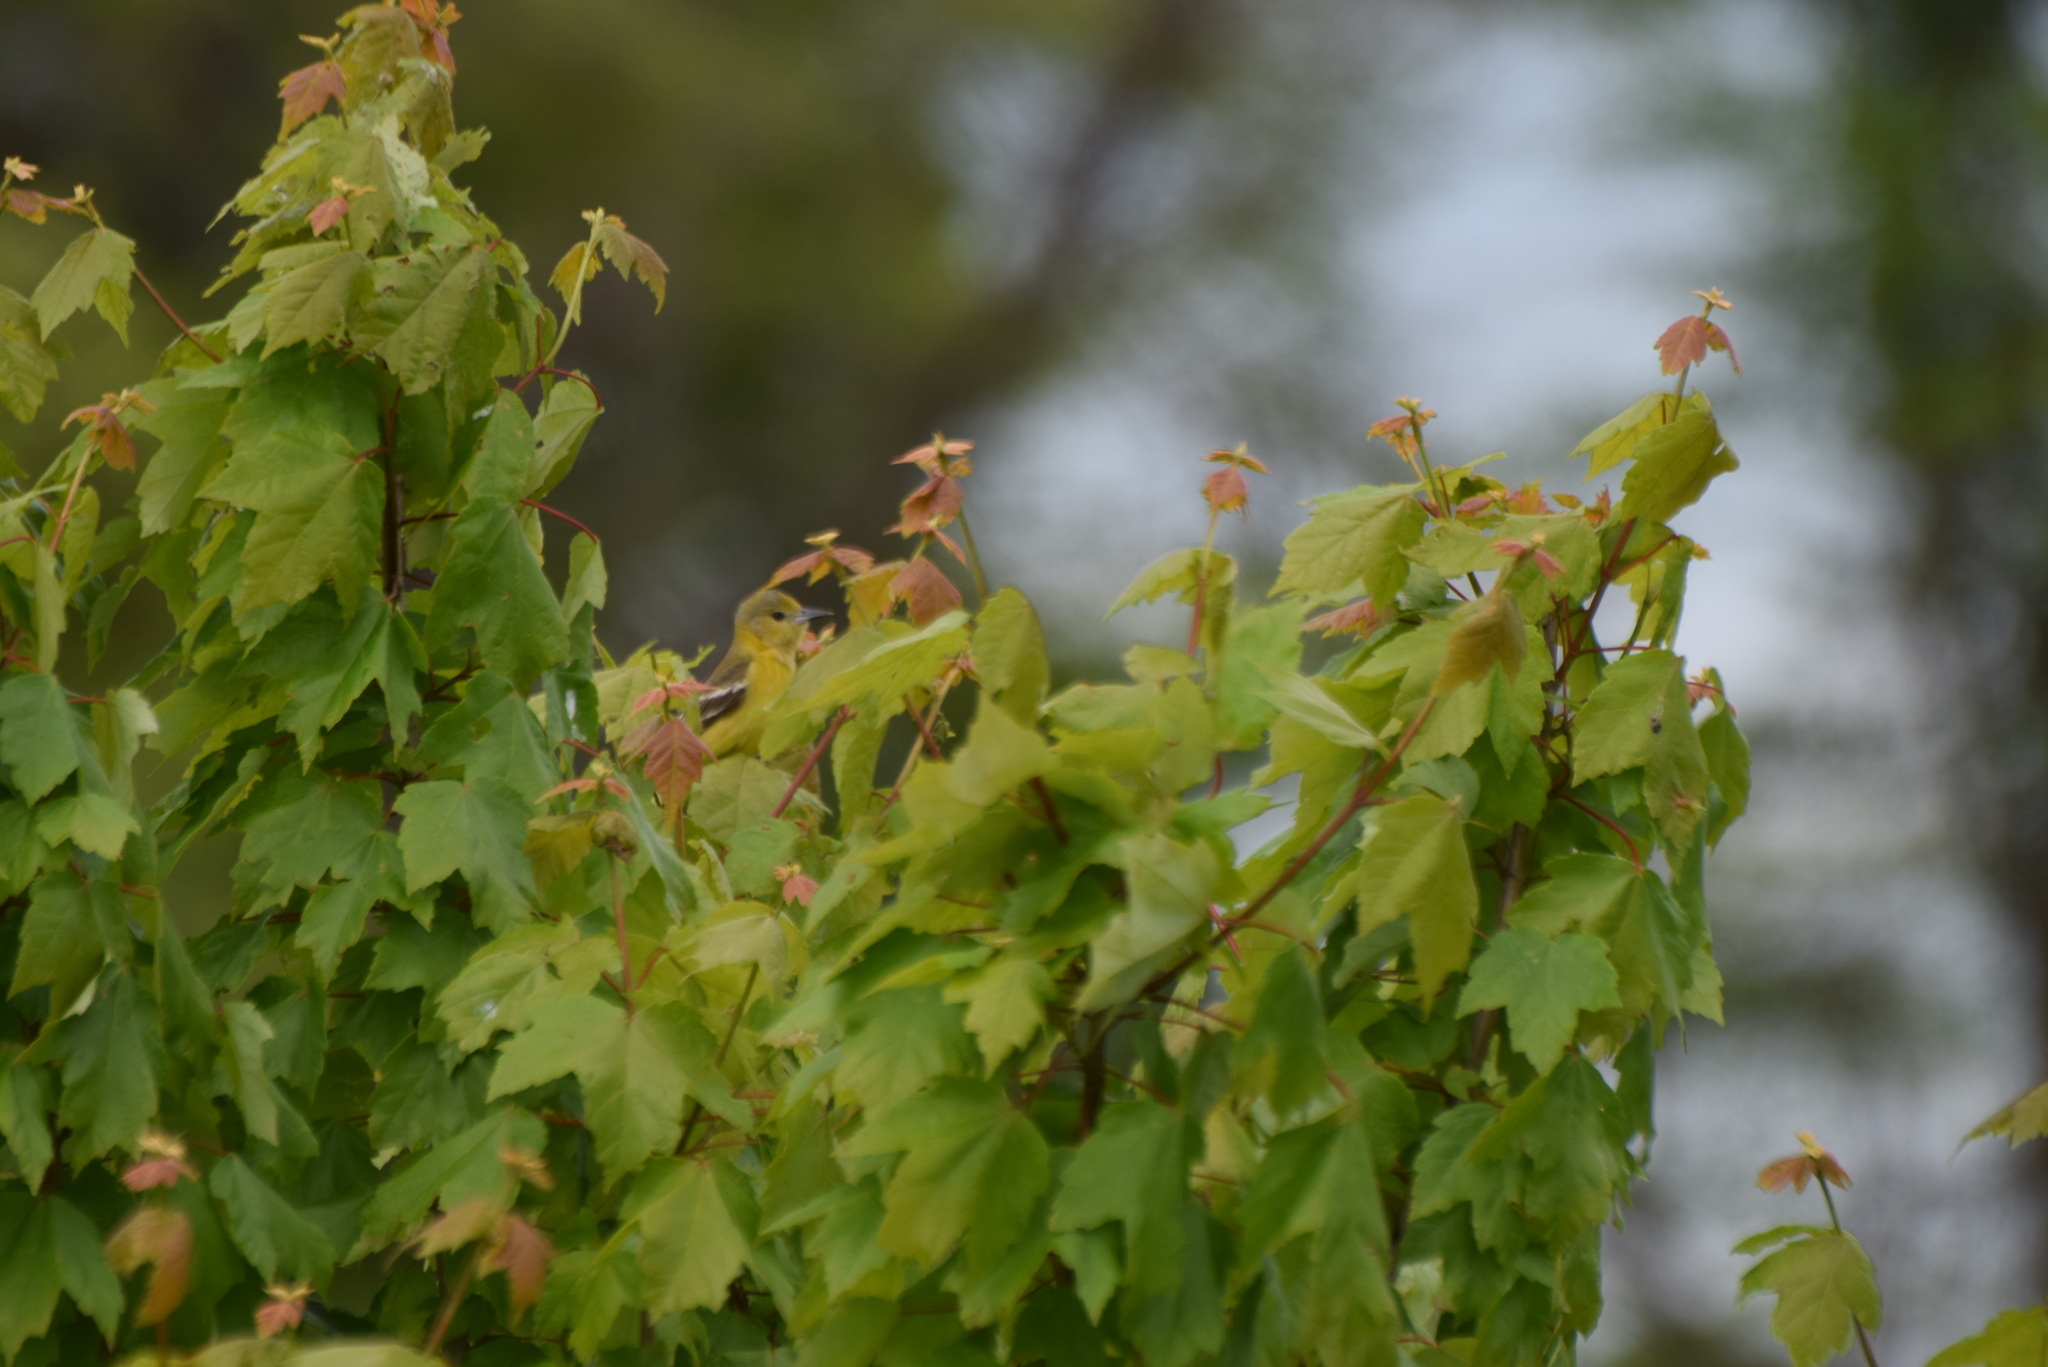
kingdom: Animalia
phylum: Chordata
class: Aves
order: Passeriformes
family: Icteridae
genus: Icterus
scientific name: Icterus spurius
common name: Orchard oriole
